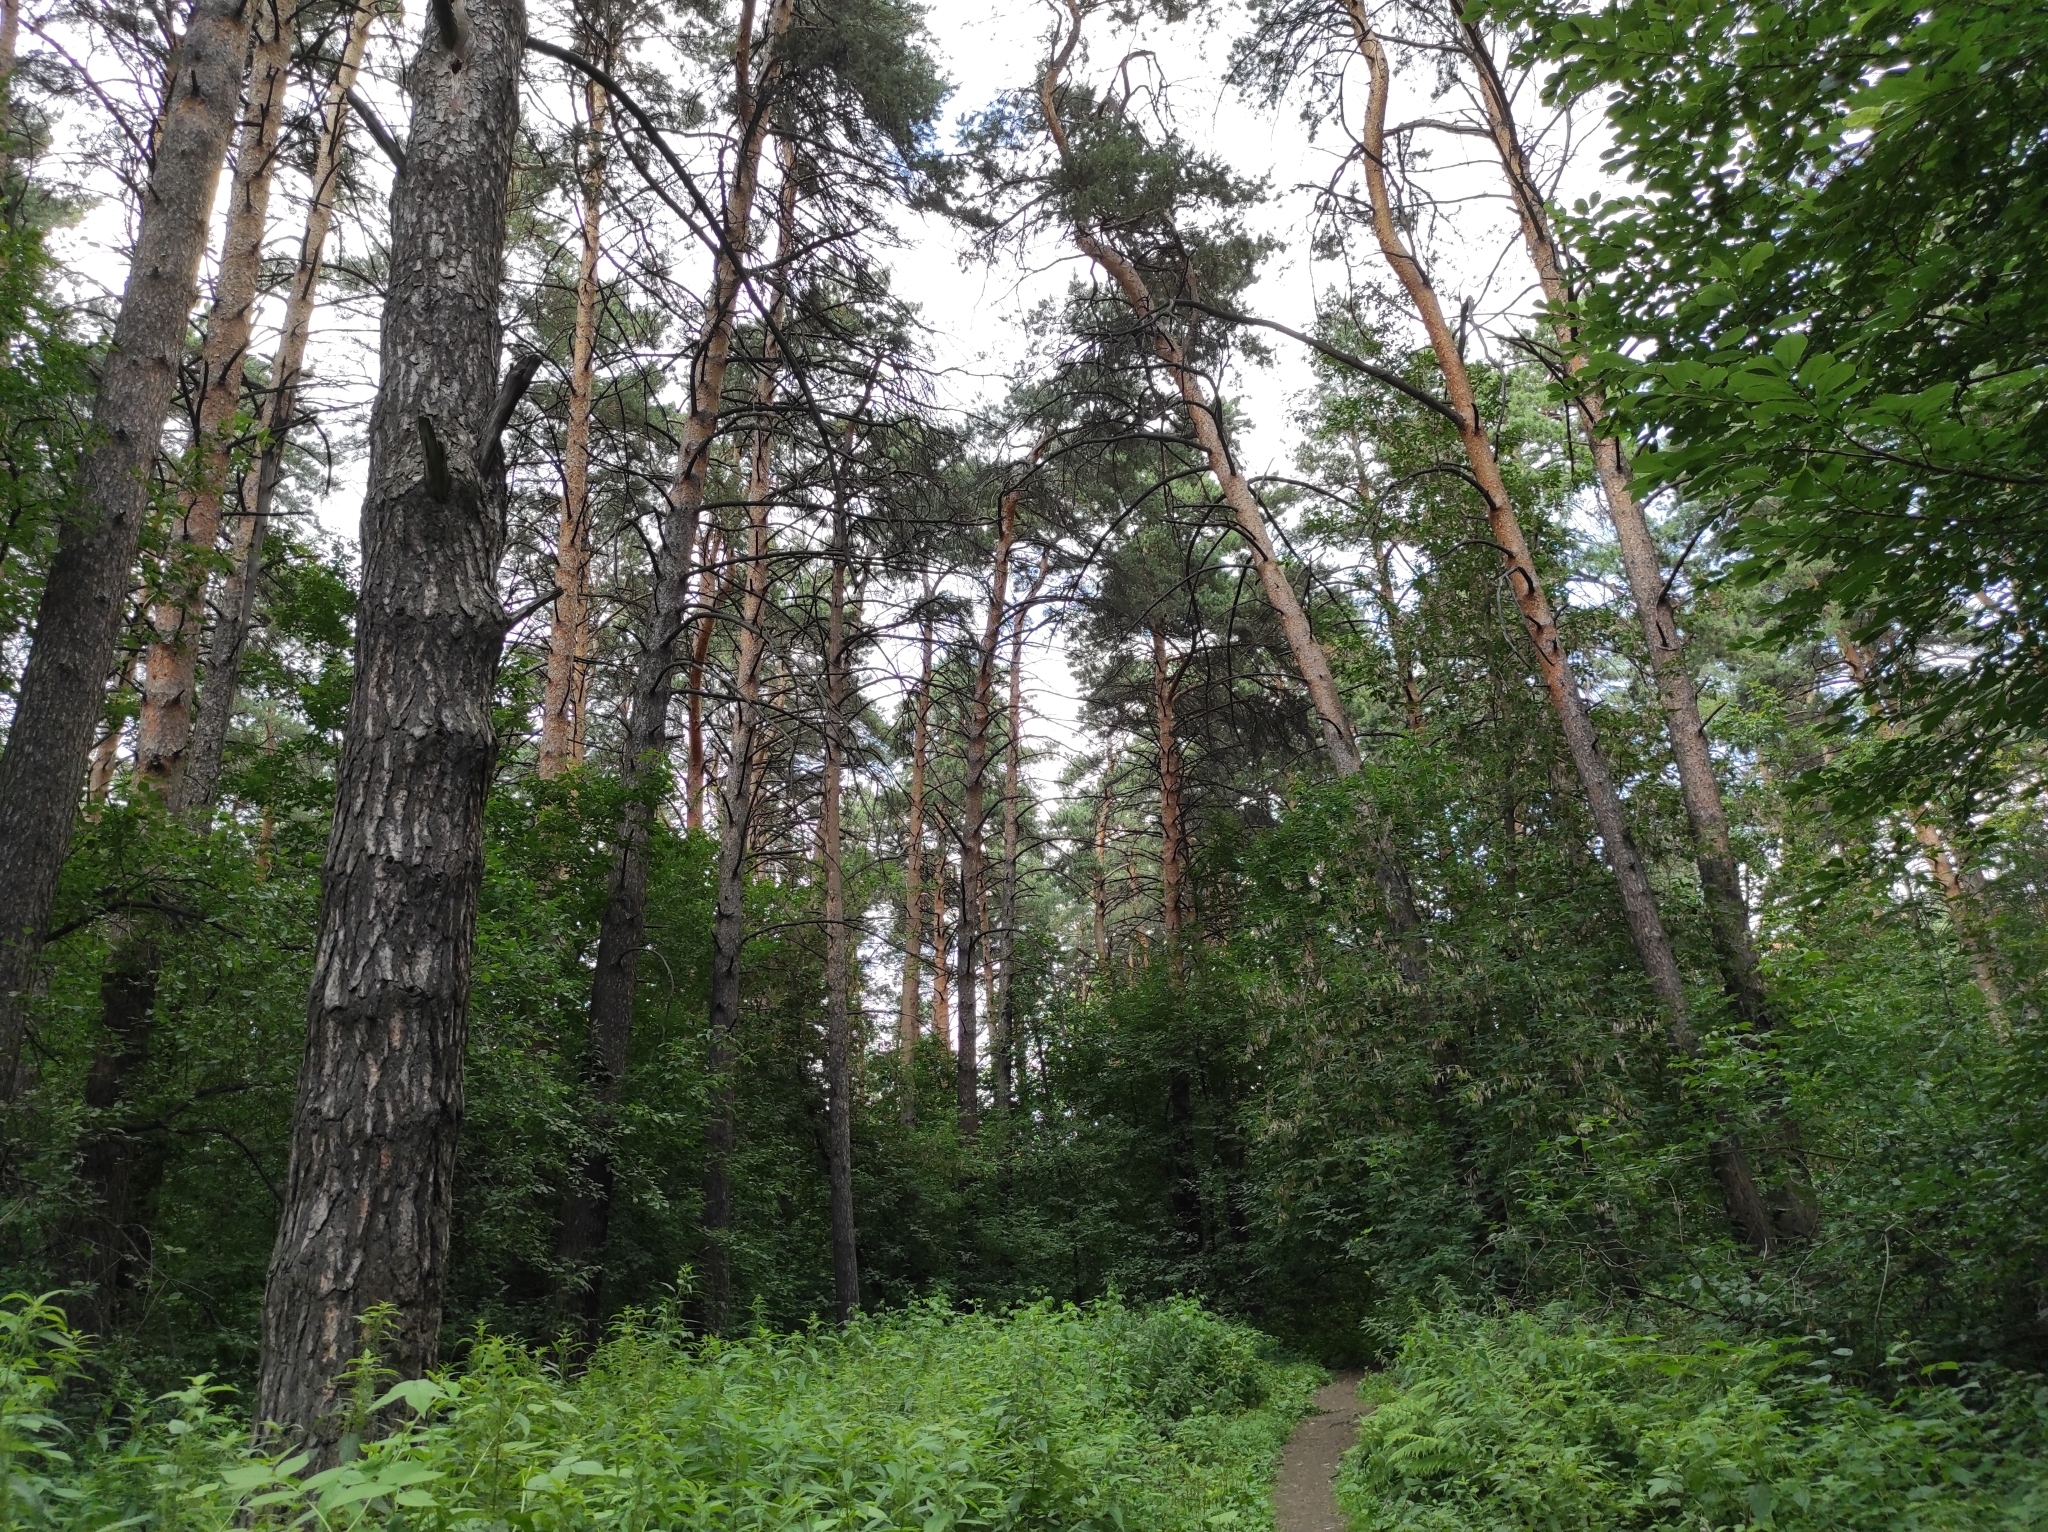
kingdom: Plantae
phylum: Tracheophyta
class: Pinopsida
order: Pinales
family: Pinaceae
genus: Pinus
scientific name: Pinus sylvestris
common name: Scots pine
